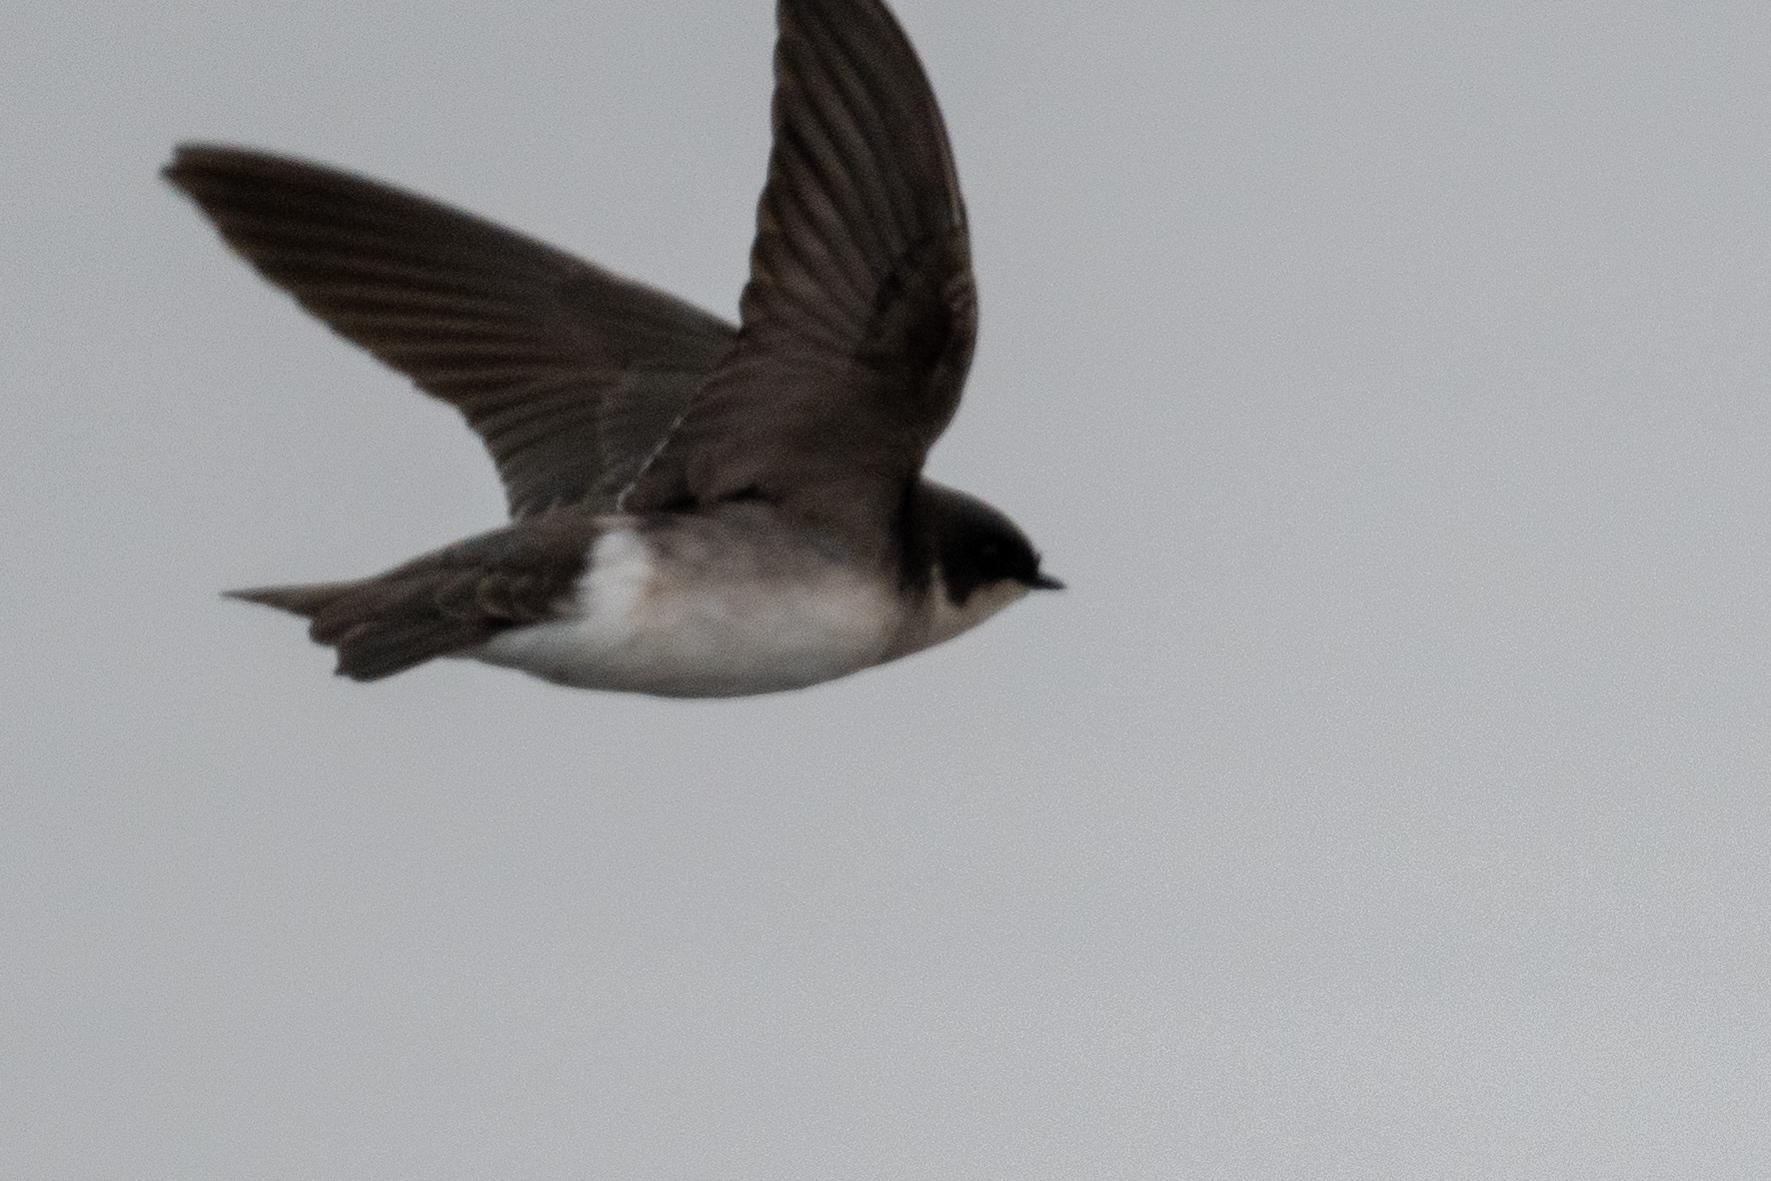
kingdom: Animalia
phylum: Chordata
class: Aves
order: Passeriformes
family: Hirundinidae
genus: Tachycineta
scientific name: Tachycineta bicolor
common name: Tree swallow
